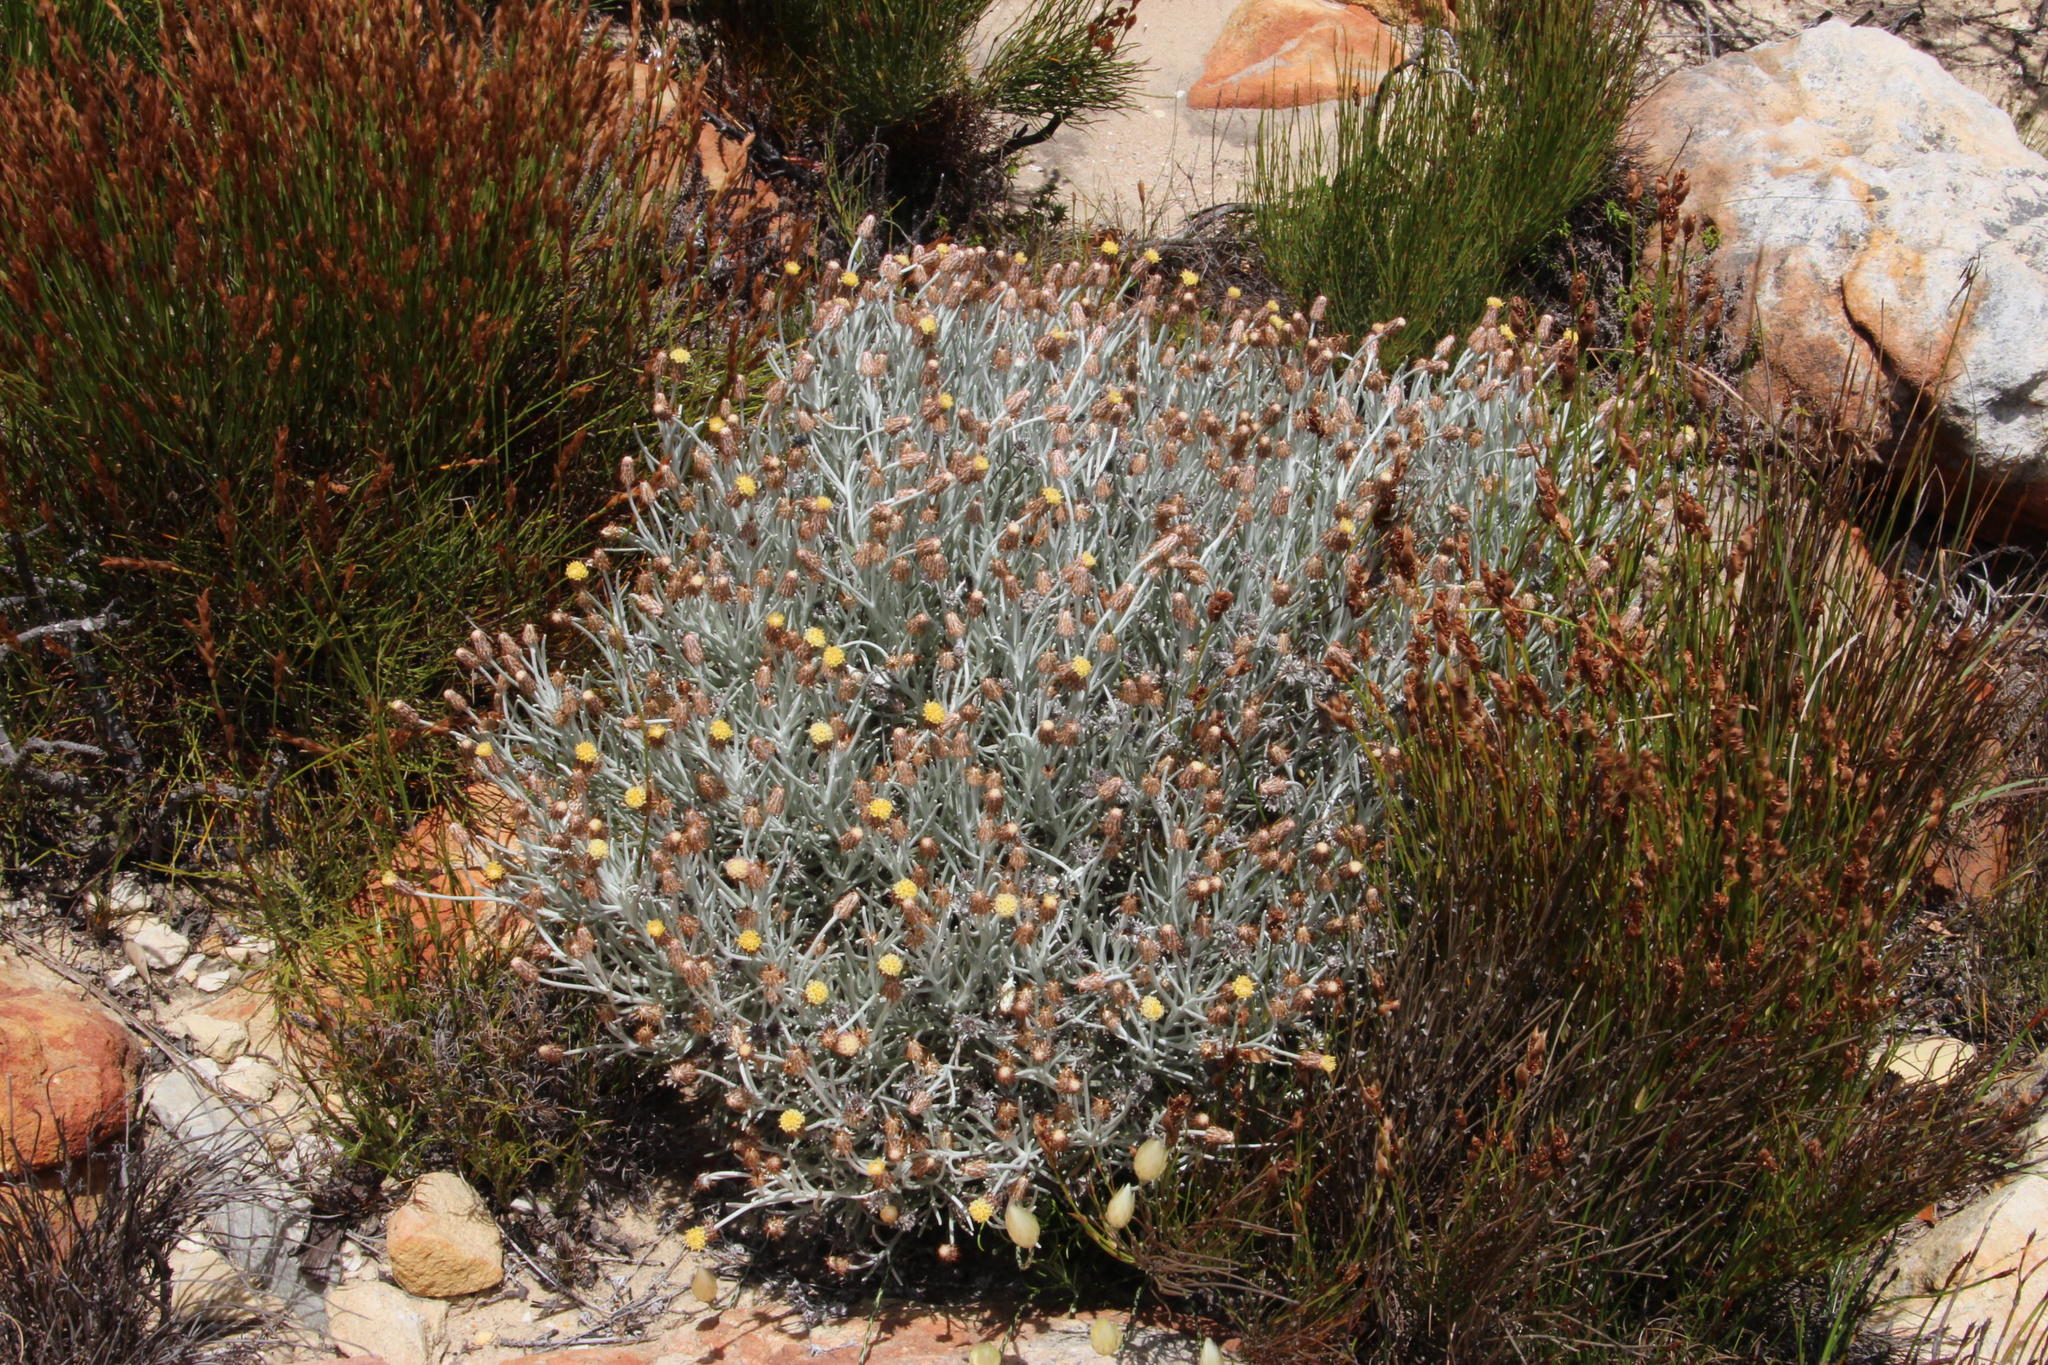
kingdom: Plantae
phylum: Tracheophyta
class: Magnoliopsida
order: Asterales
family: Asteraceae
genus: Syncarpha
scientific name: Syncarpha gnaphaloides
